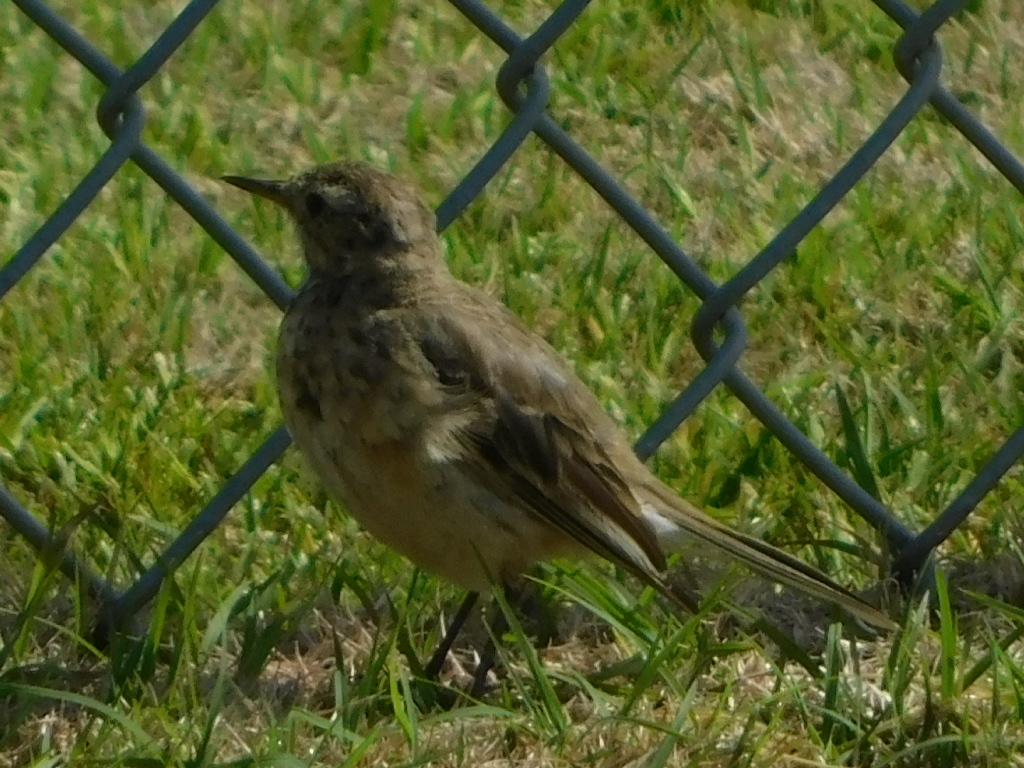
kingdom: Animalia
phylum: Chordata
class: Aves
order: Passeriformes
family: Motacillidae
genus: Anthus
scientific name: Anthus rubescens
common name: Buff-bellied pipit
